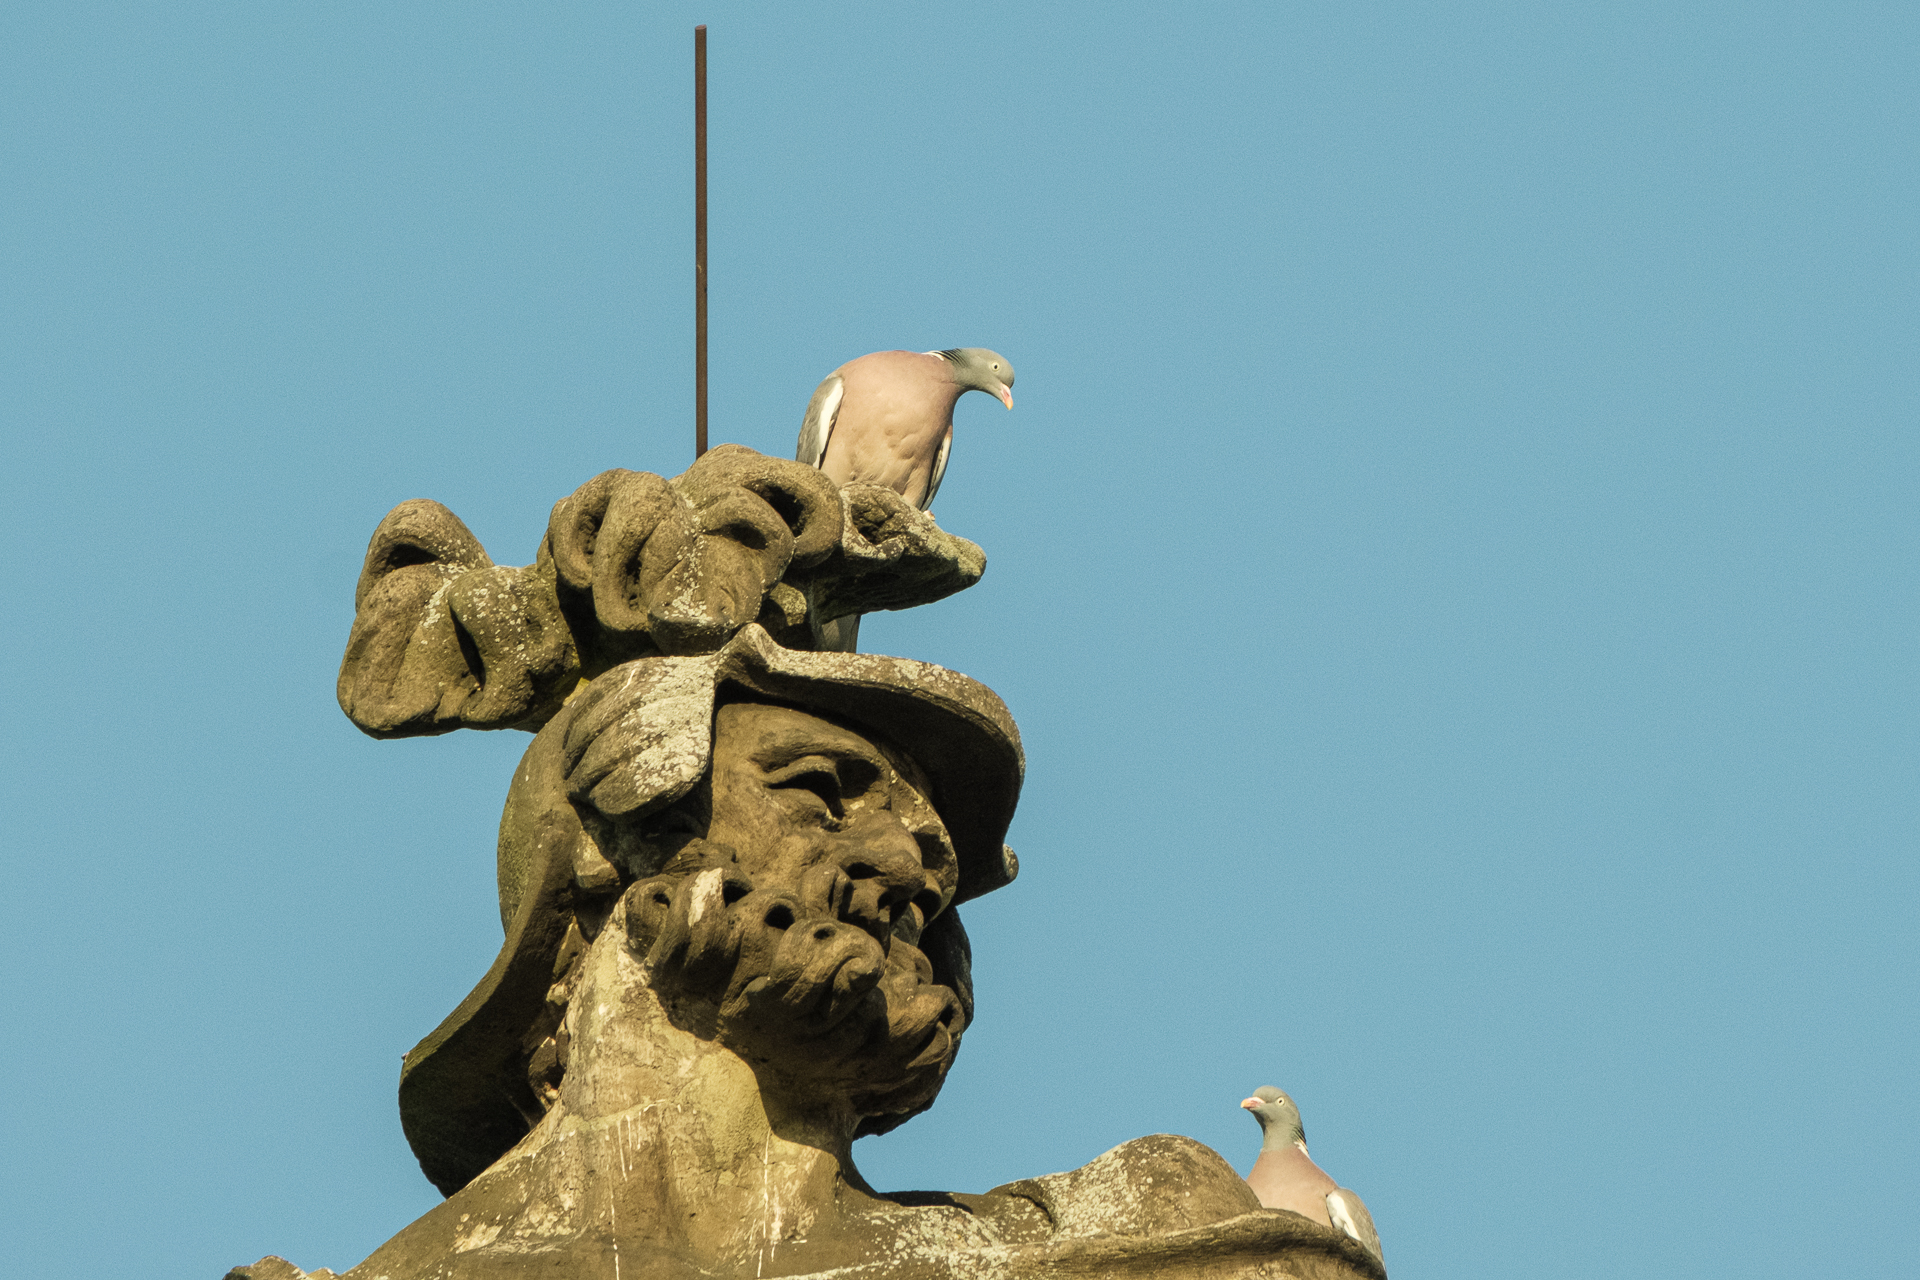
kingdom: Animalia
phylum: Chordata
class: Aves
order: Columbiformes
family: Columbidae
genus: Columba
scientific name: Columba palumbus
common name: Common wood pigeon
